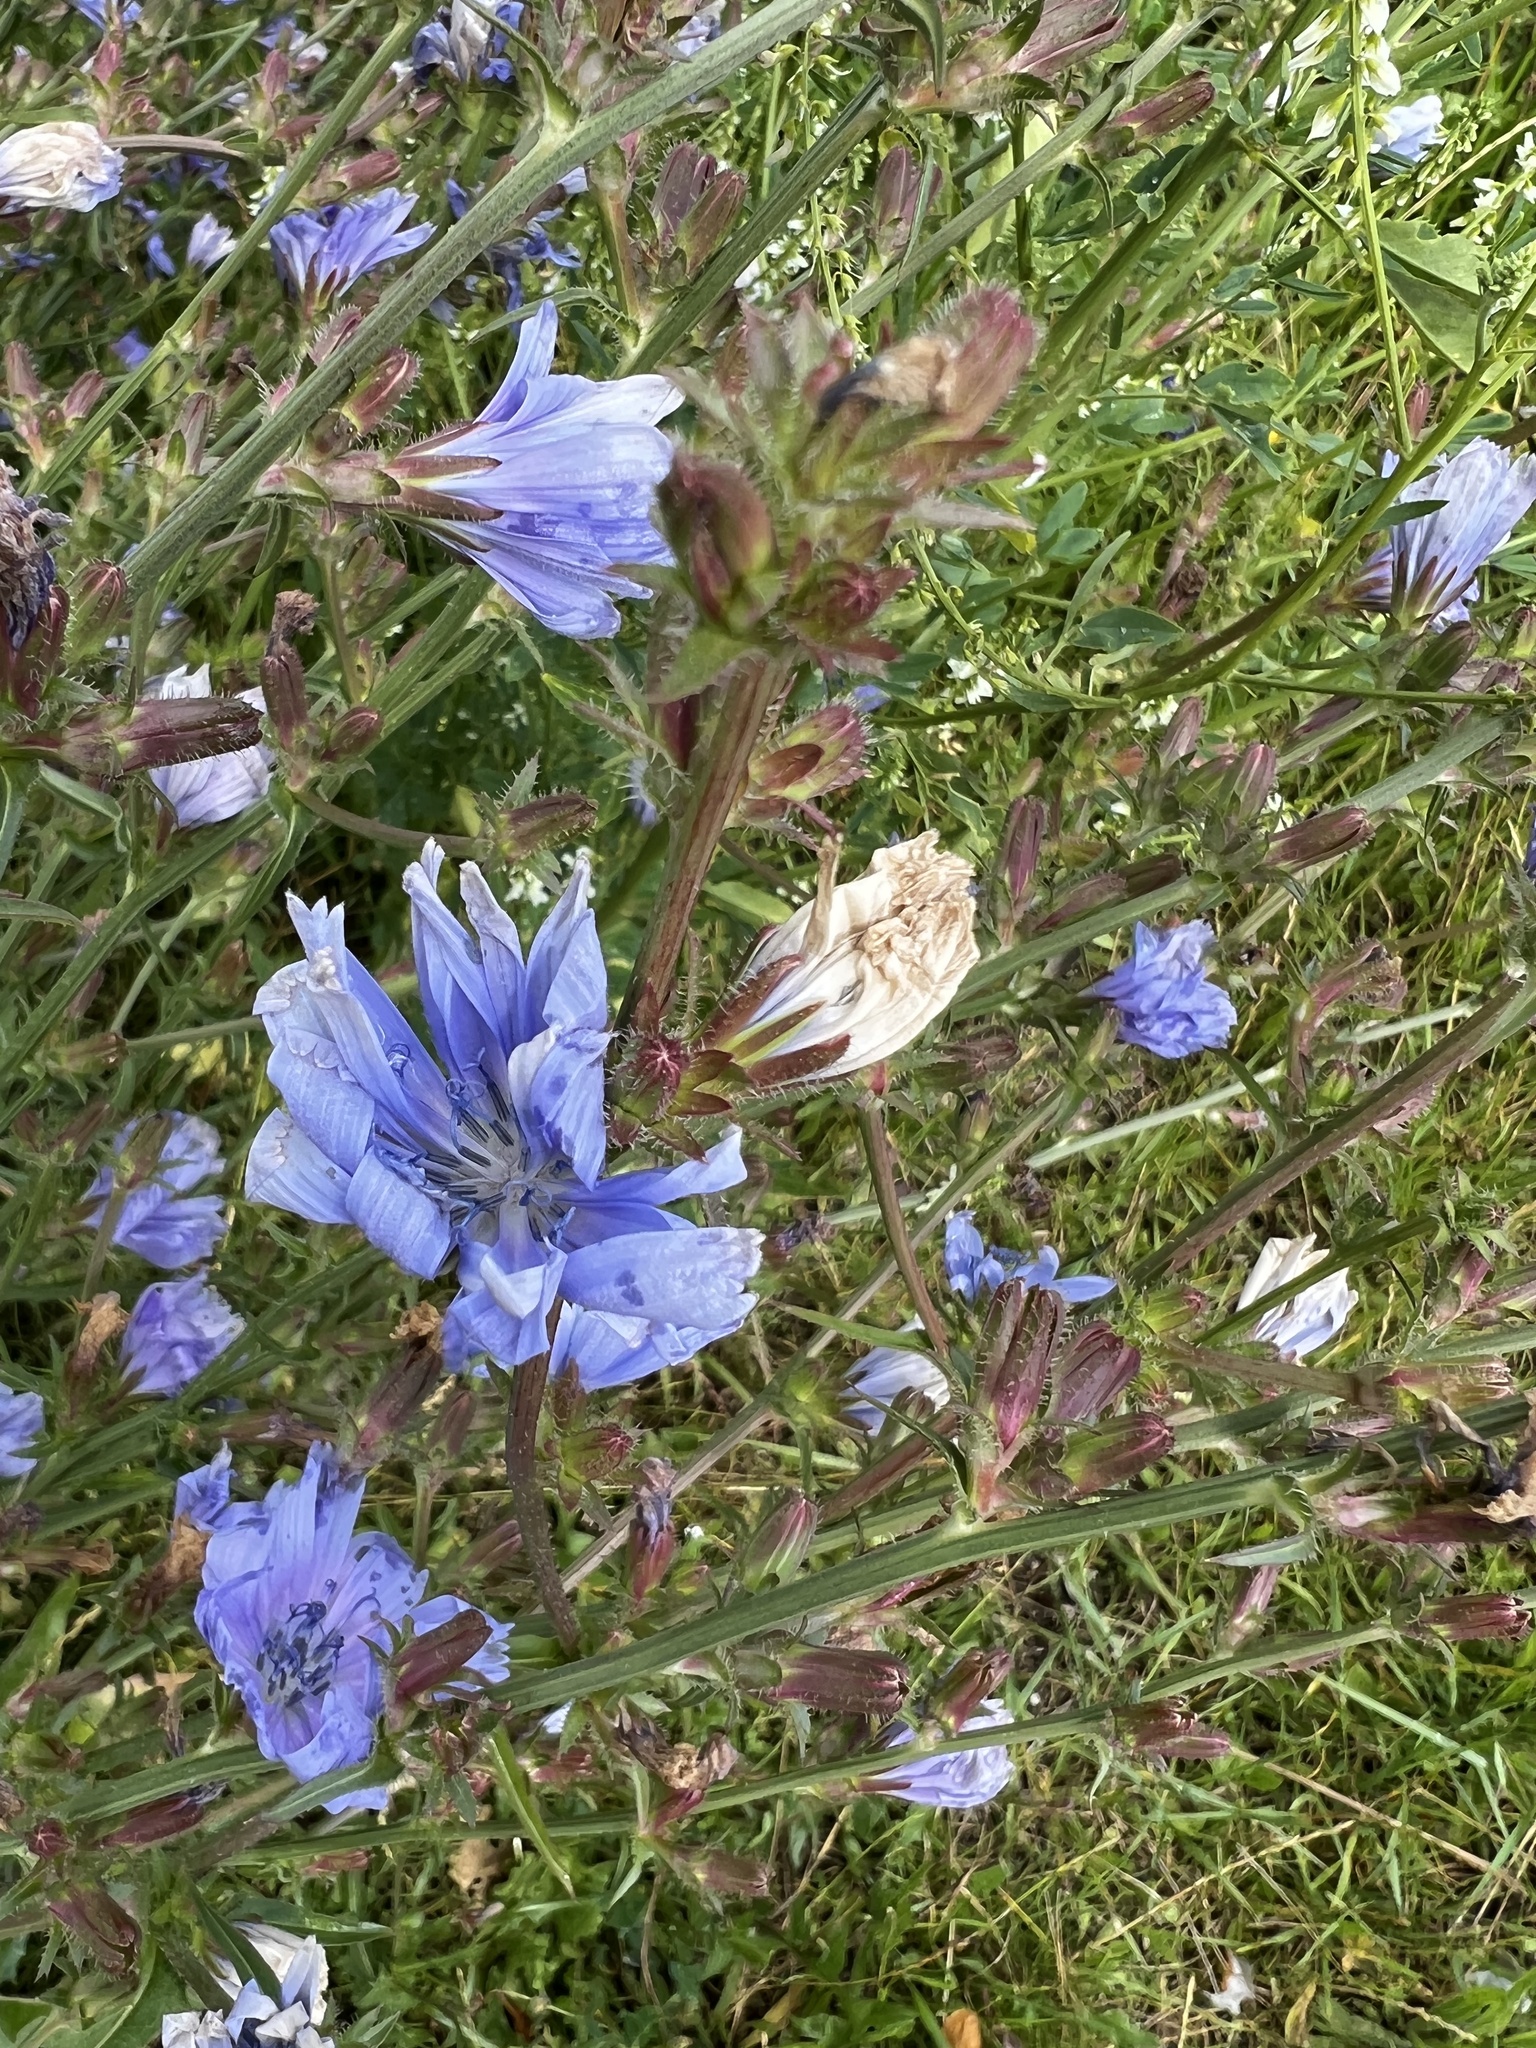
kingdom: Plantae
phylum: Tracheophyta
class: Magnoliopsida
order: Asterales
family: Asteraceae
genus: Cichorium
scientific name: Cichorium intybus
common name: Chicory
